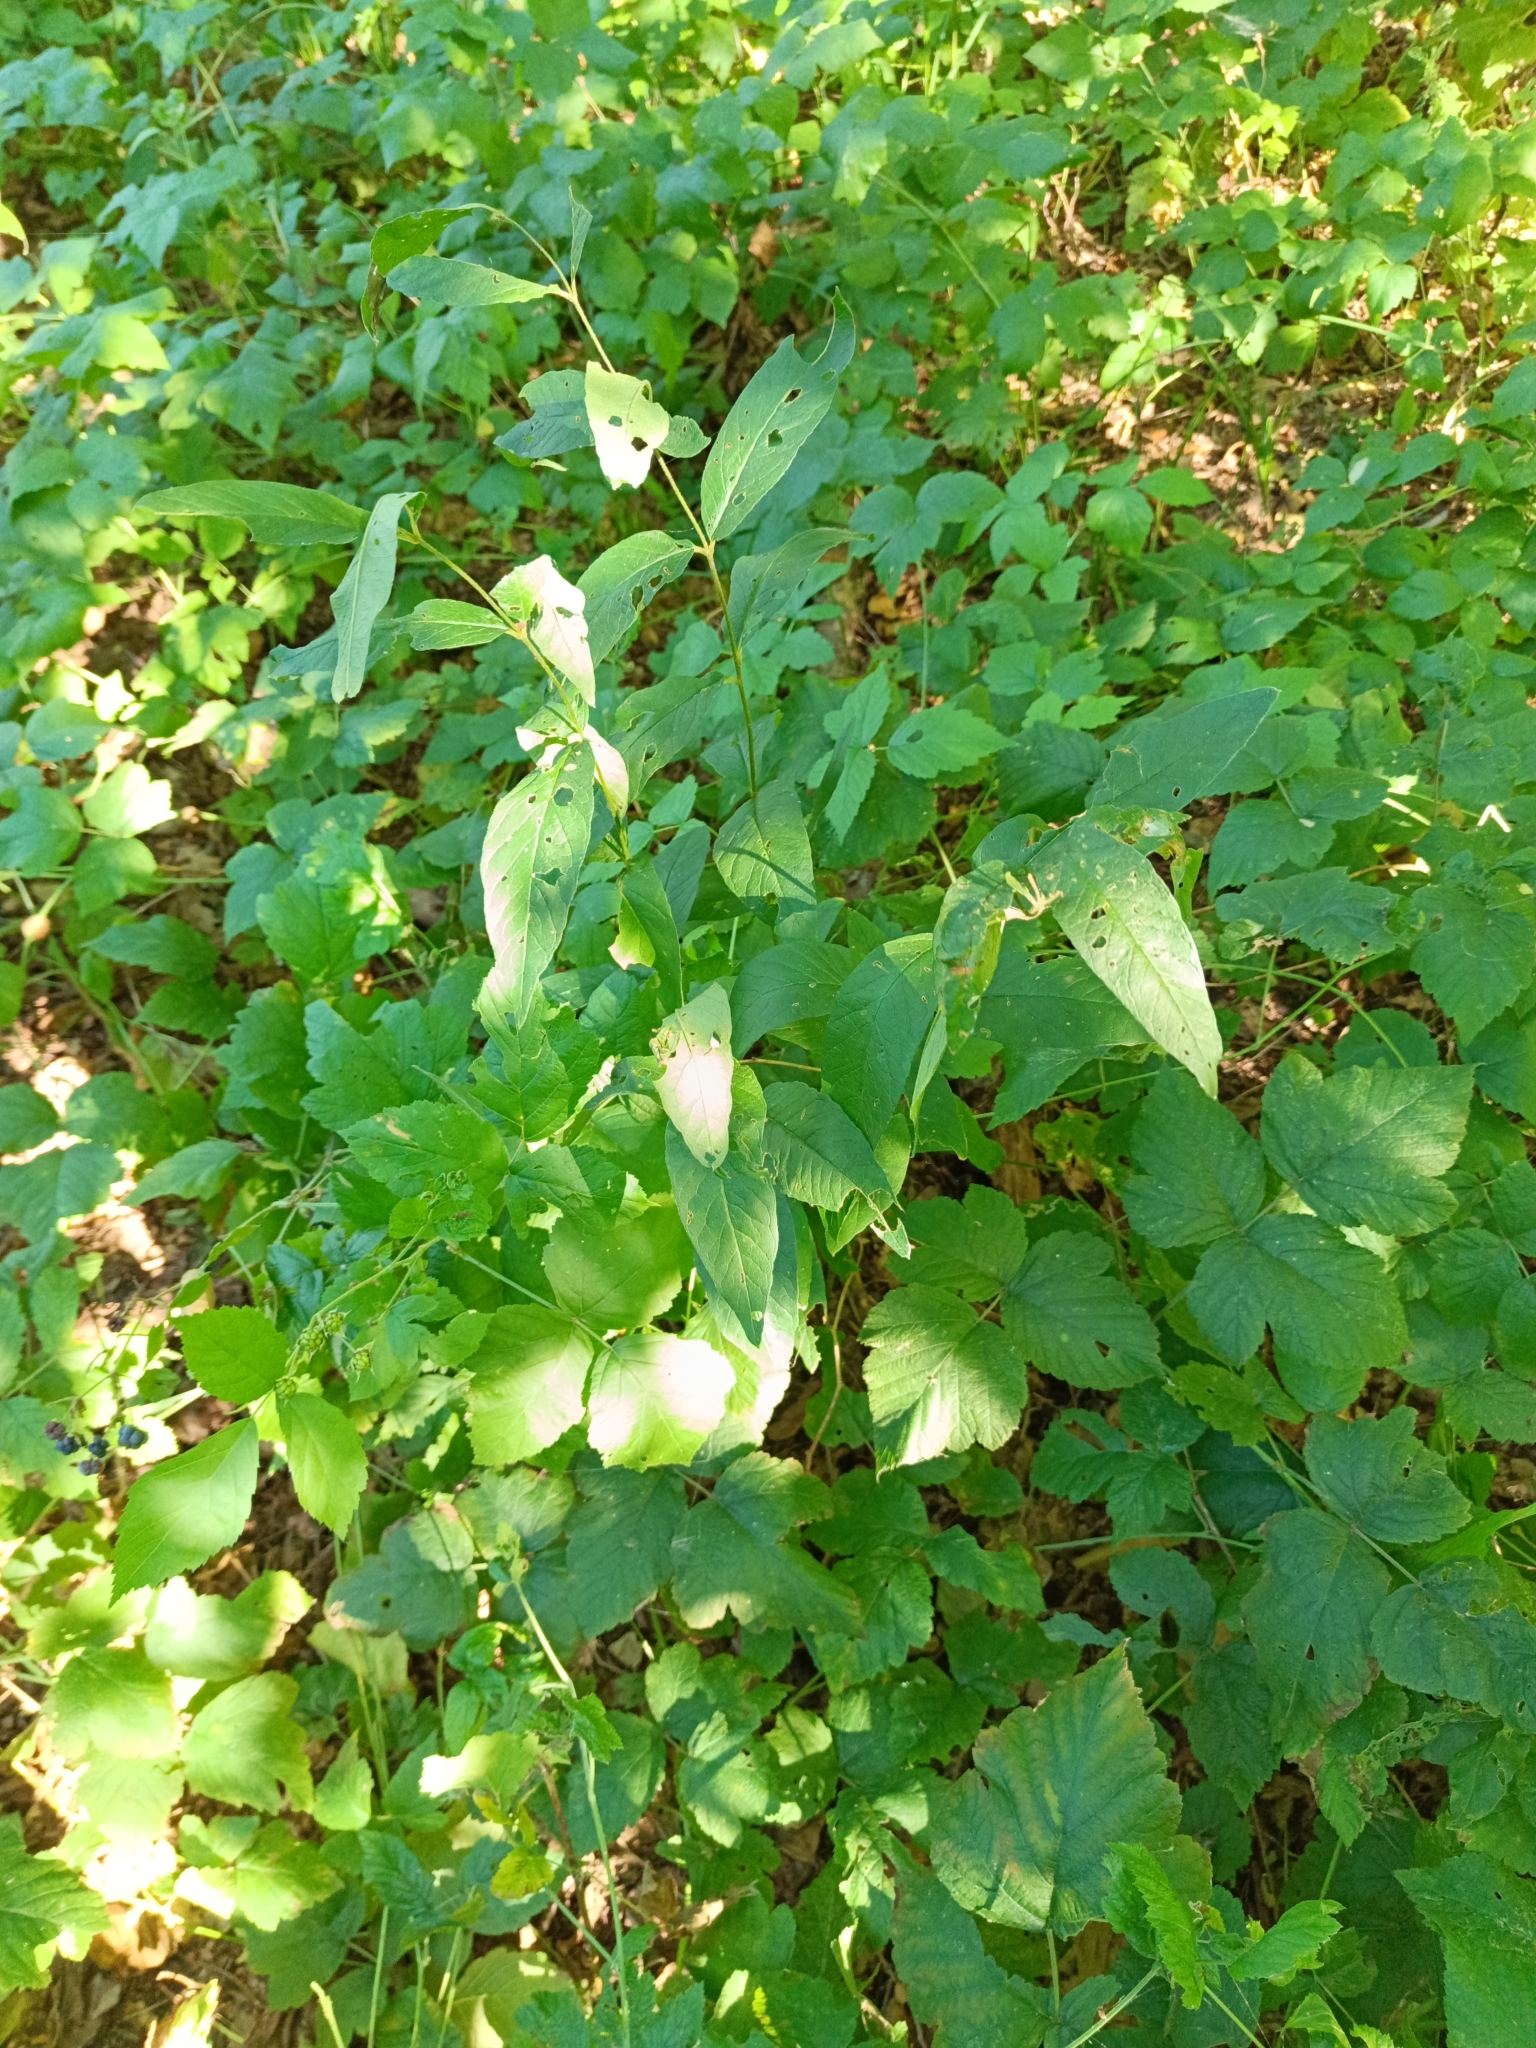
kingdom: Plantae
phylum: Tracheophyta
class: Magnoliopsida
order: Ericales
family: Primulaceae
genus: Lysimachia
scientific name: Lysimachia vulgaris
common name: Yellow loosestrife
